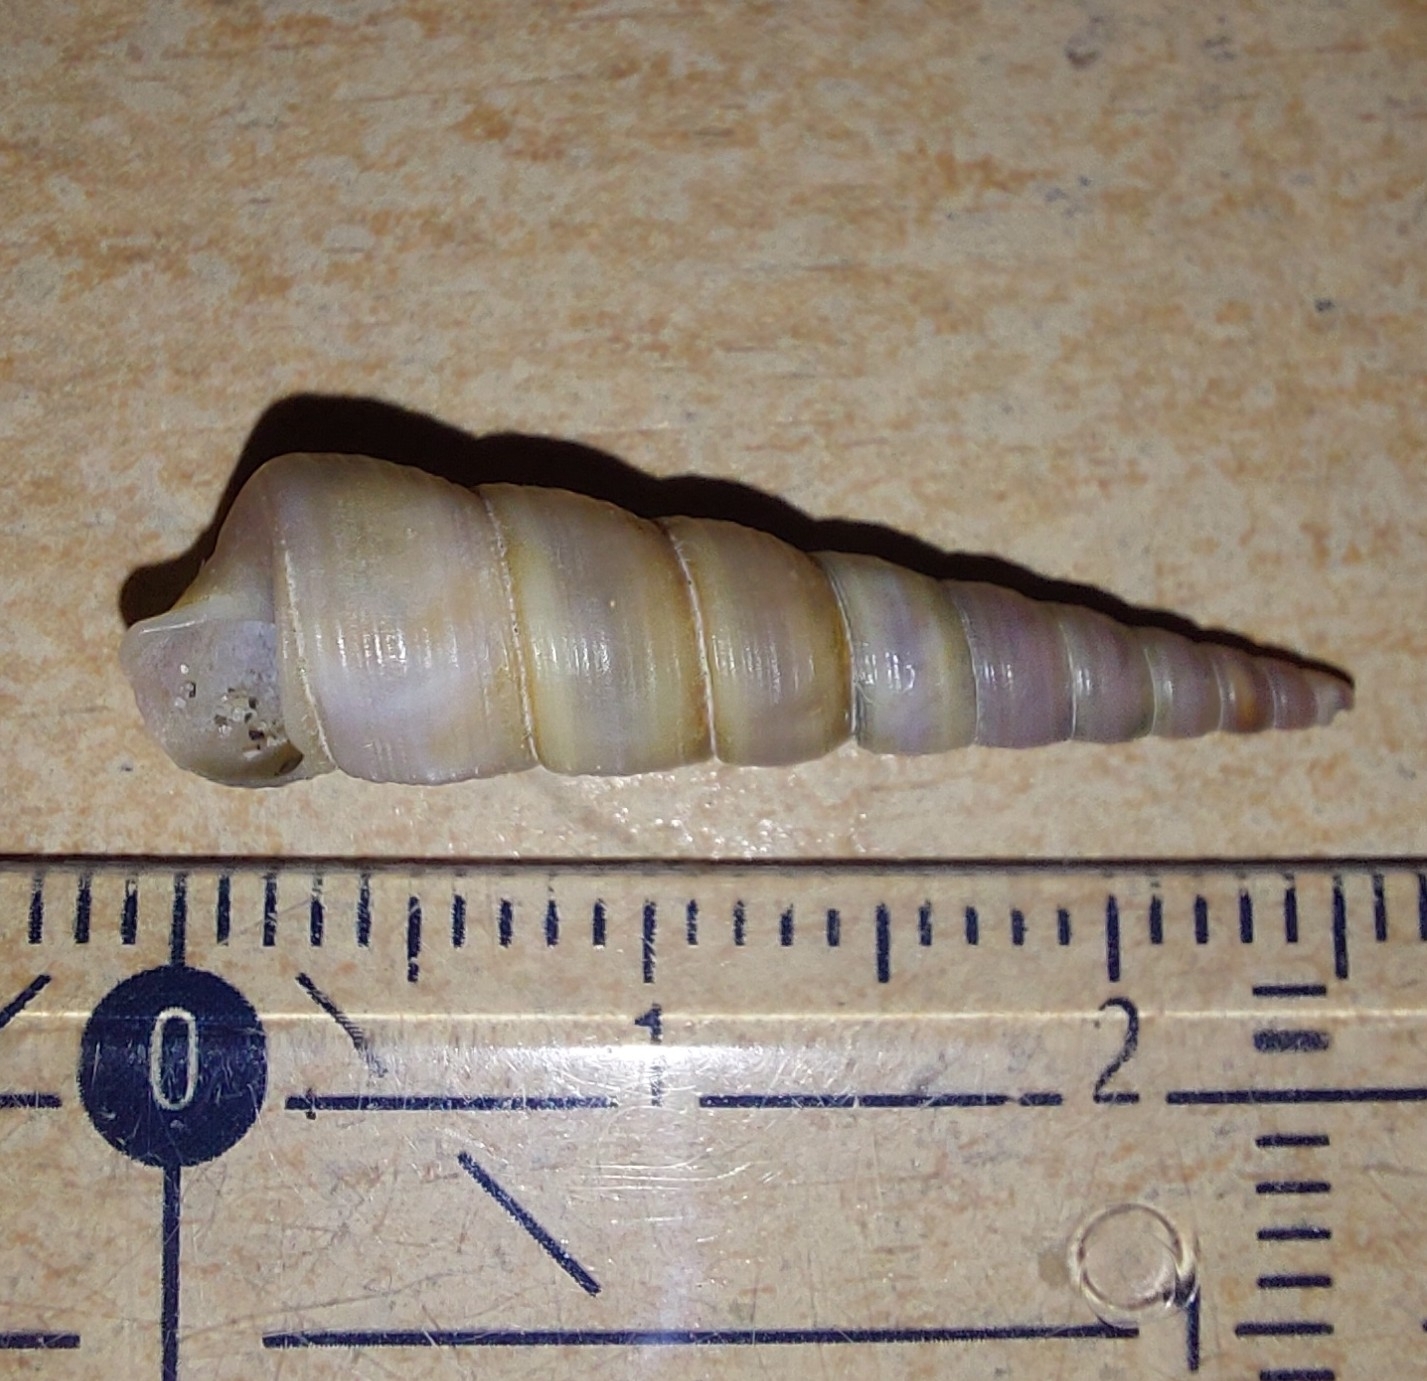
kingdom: Animalia
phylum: Mollusca
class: Gastropoda
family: Turritellidae
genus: Turritellinella
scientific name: Turritellinella tricarinata
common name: Auger shell
